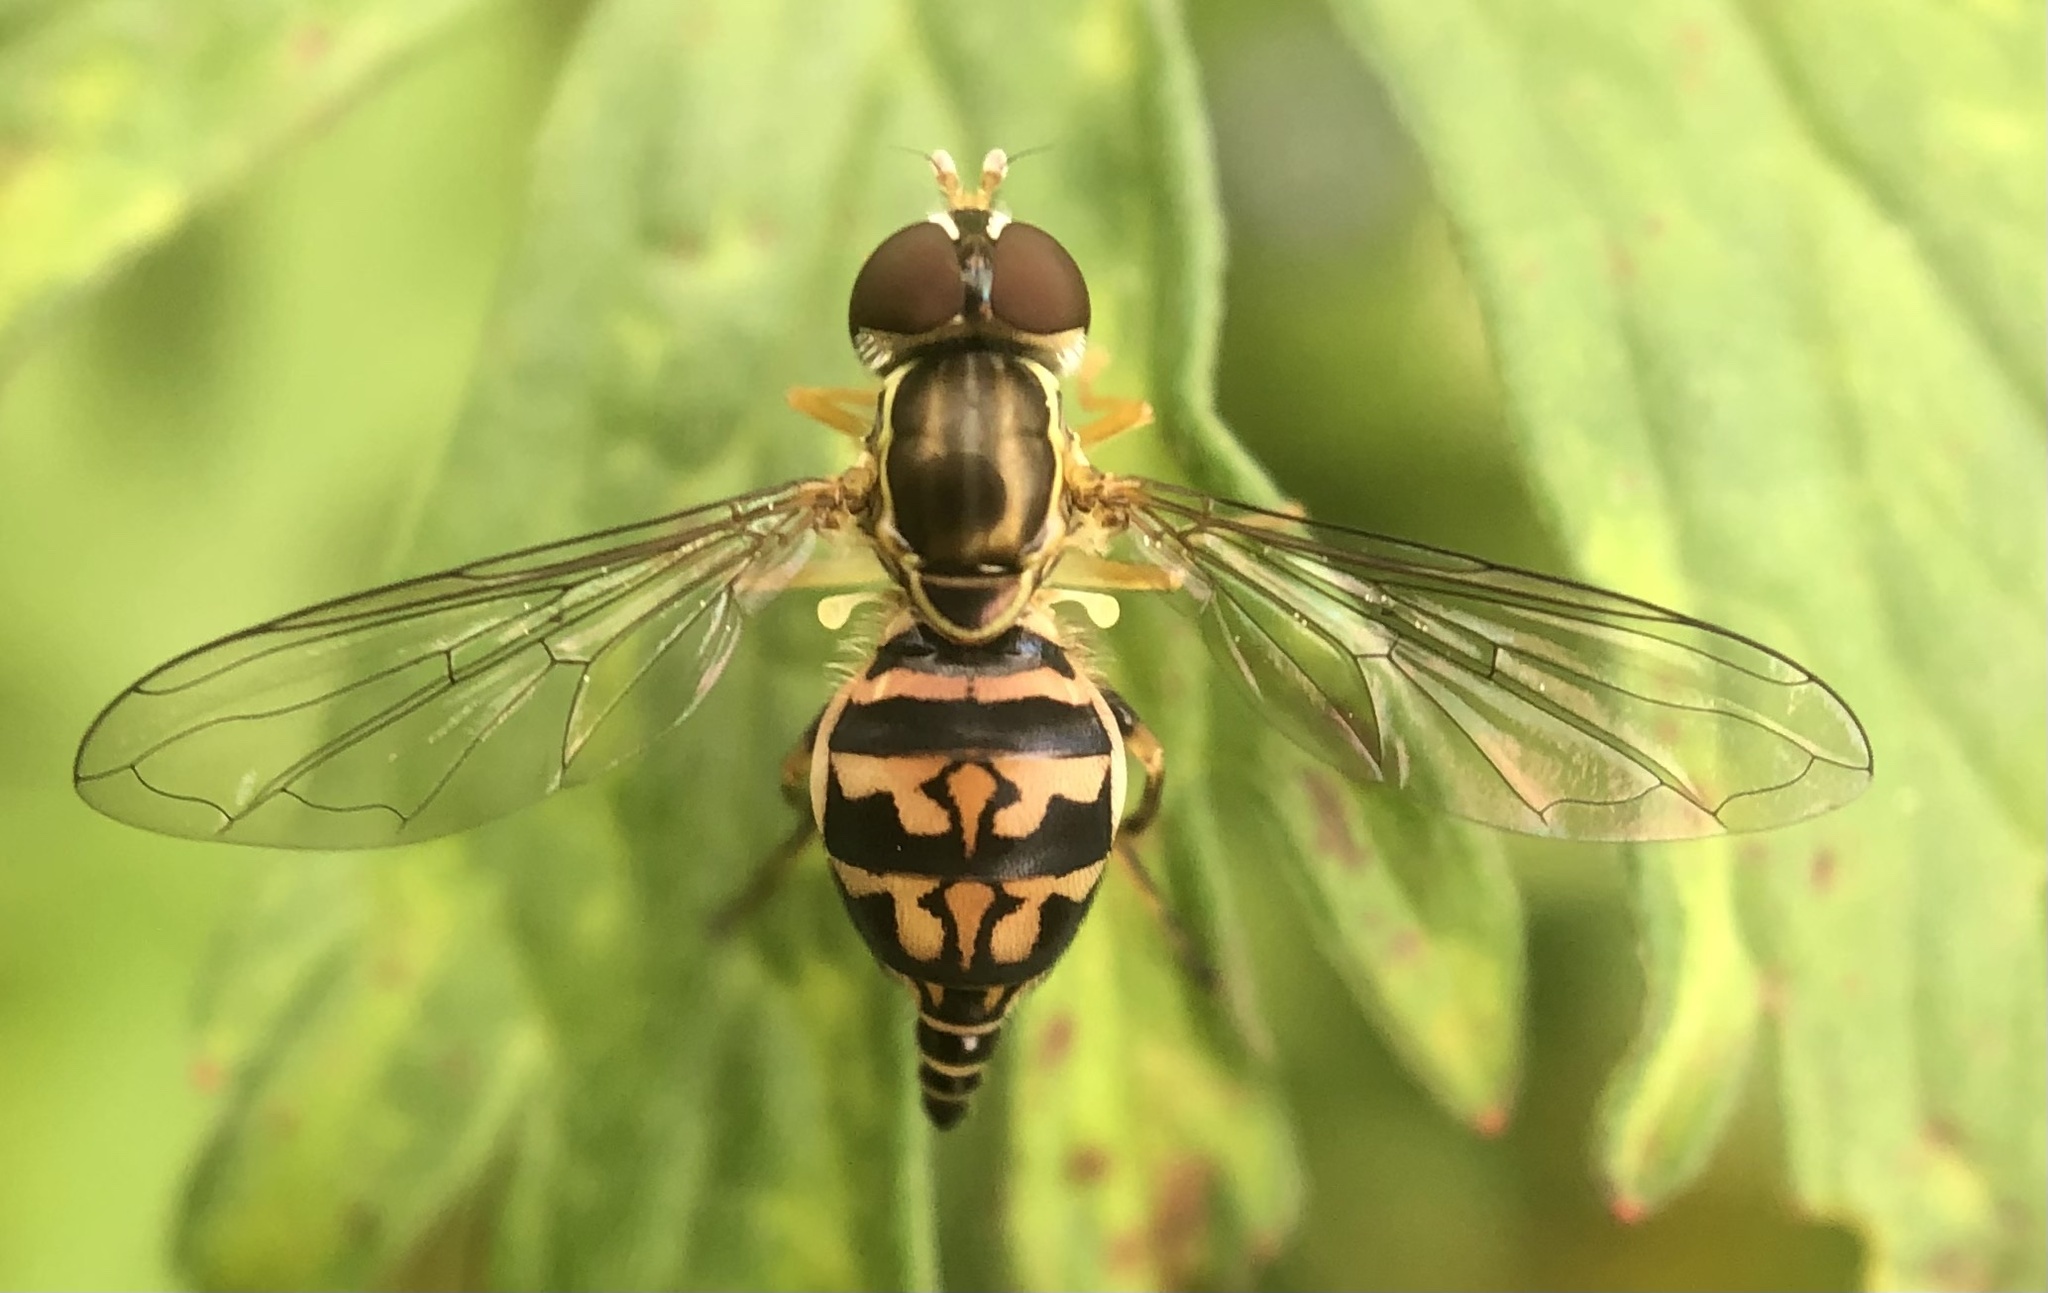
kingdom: Animalia
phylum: Arthropoda
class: Insecta
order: Diptera
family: Syrphidae
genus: Toxomerus
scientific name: Toxomerus geminatus
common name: Eastern calligrapher
